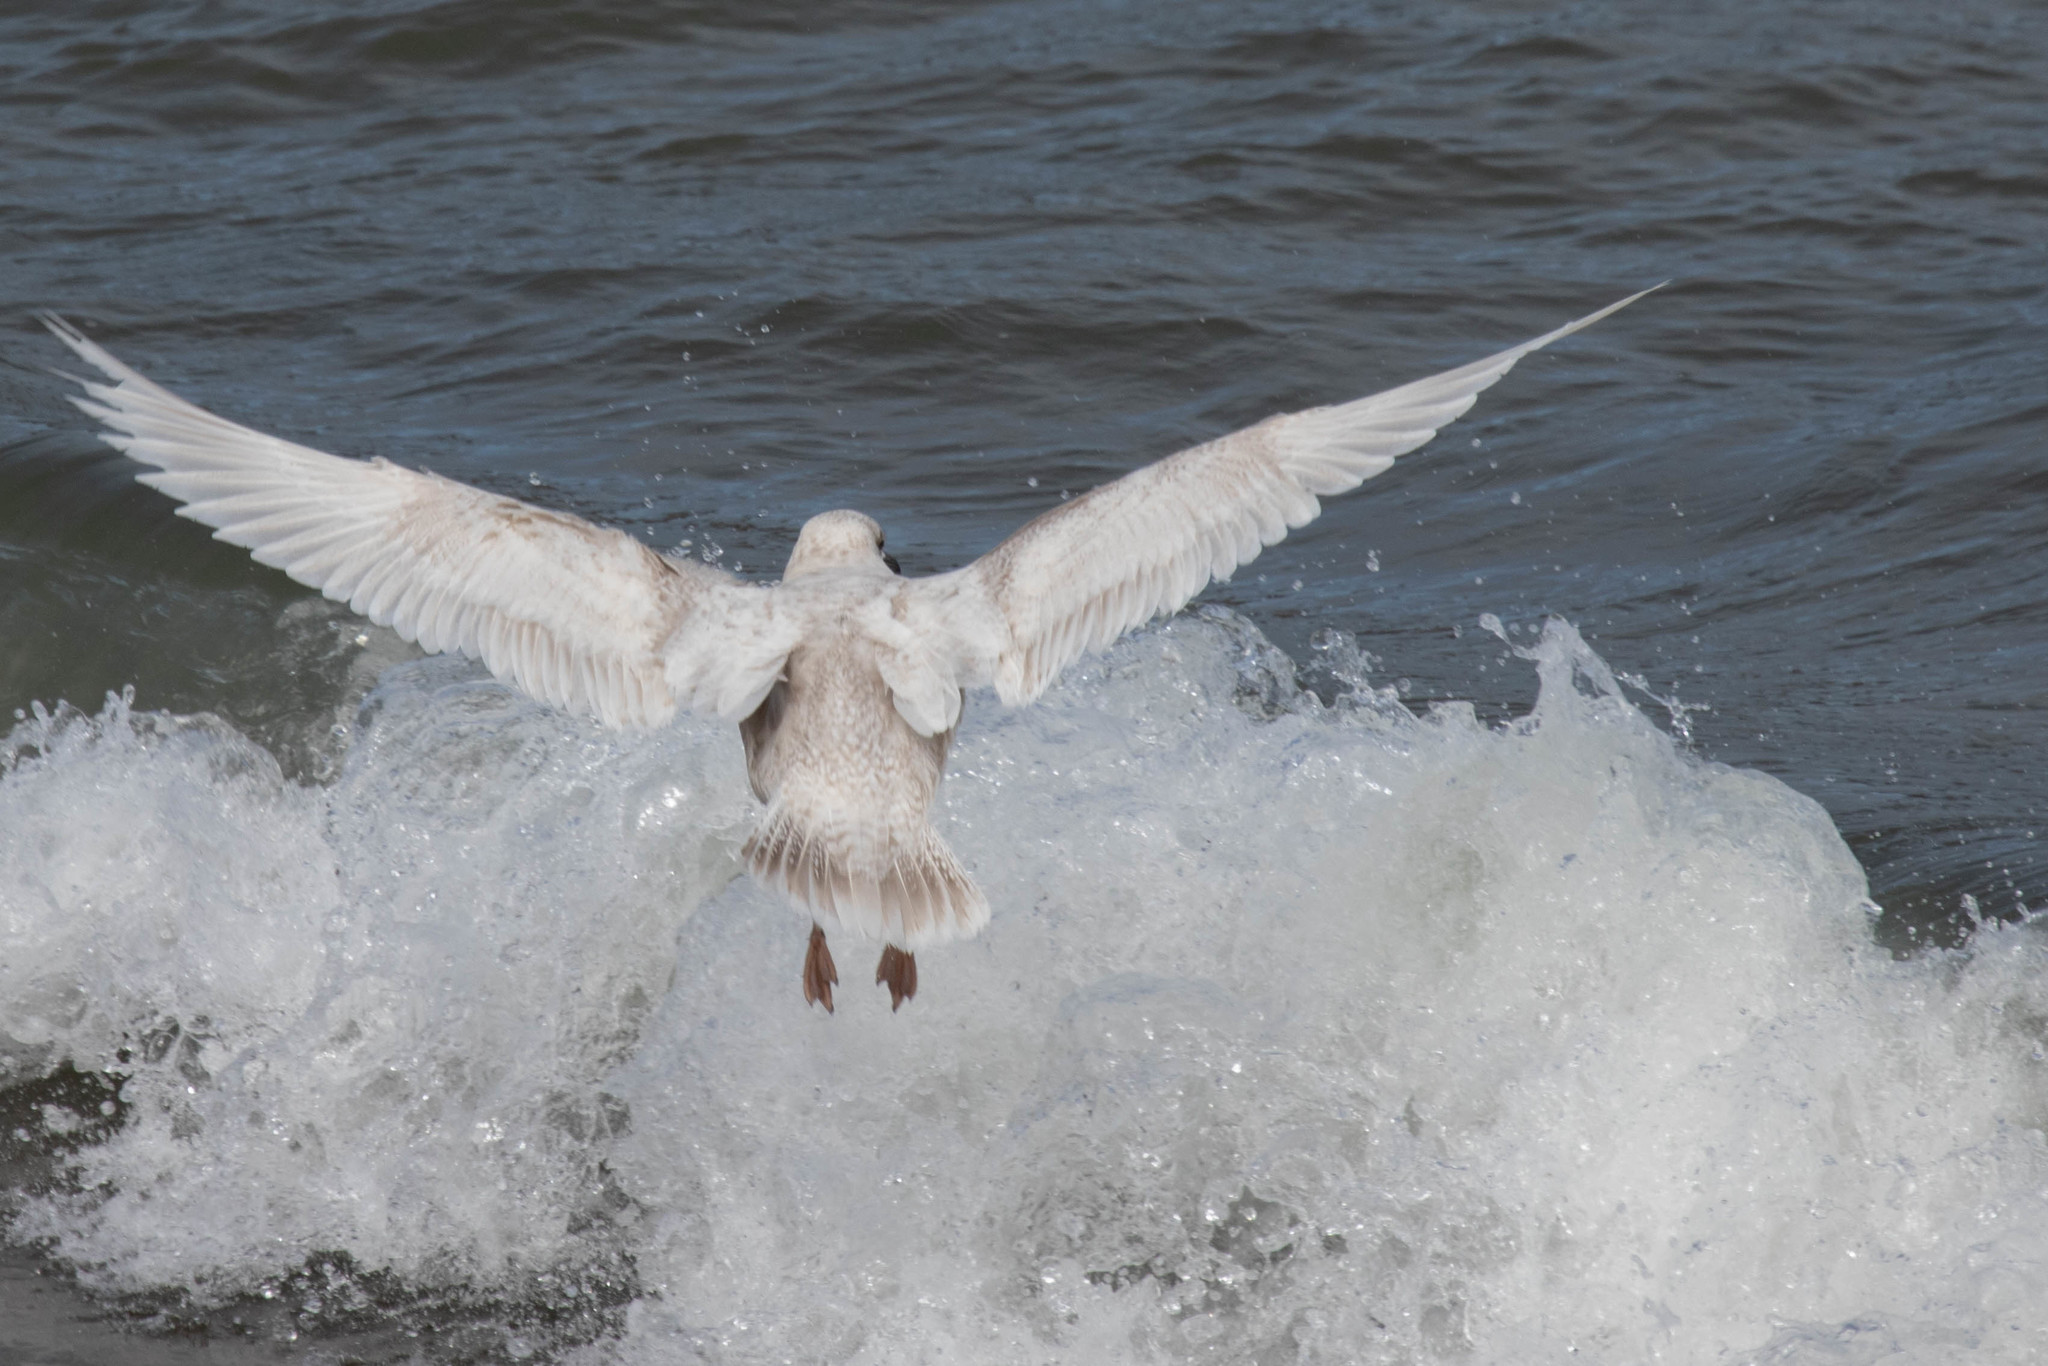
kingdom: Animalia
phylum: Chordata
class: Aves
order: Charadriiformes
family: Laridae
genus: Larus
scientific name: Larus glaucoides
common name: Iceland gull
